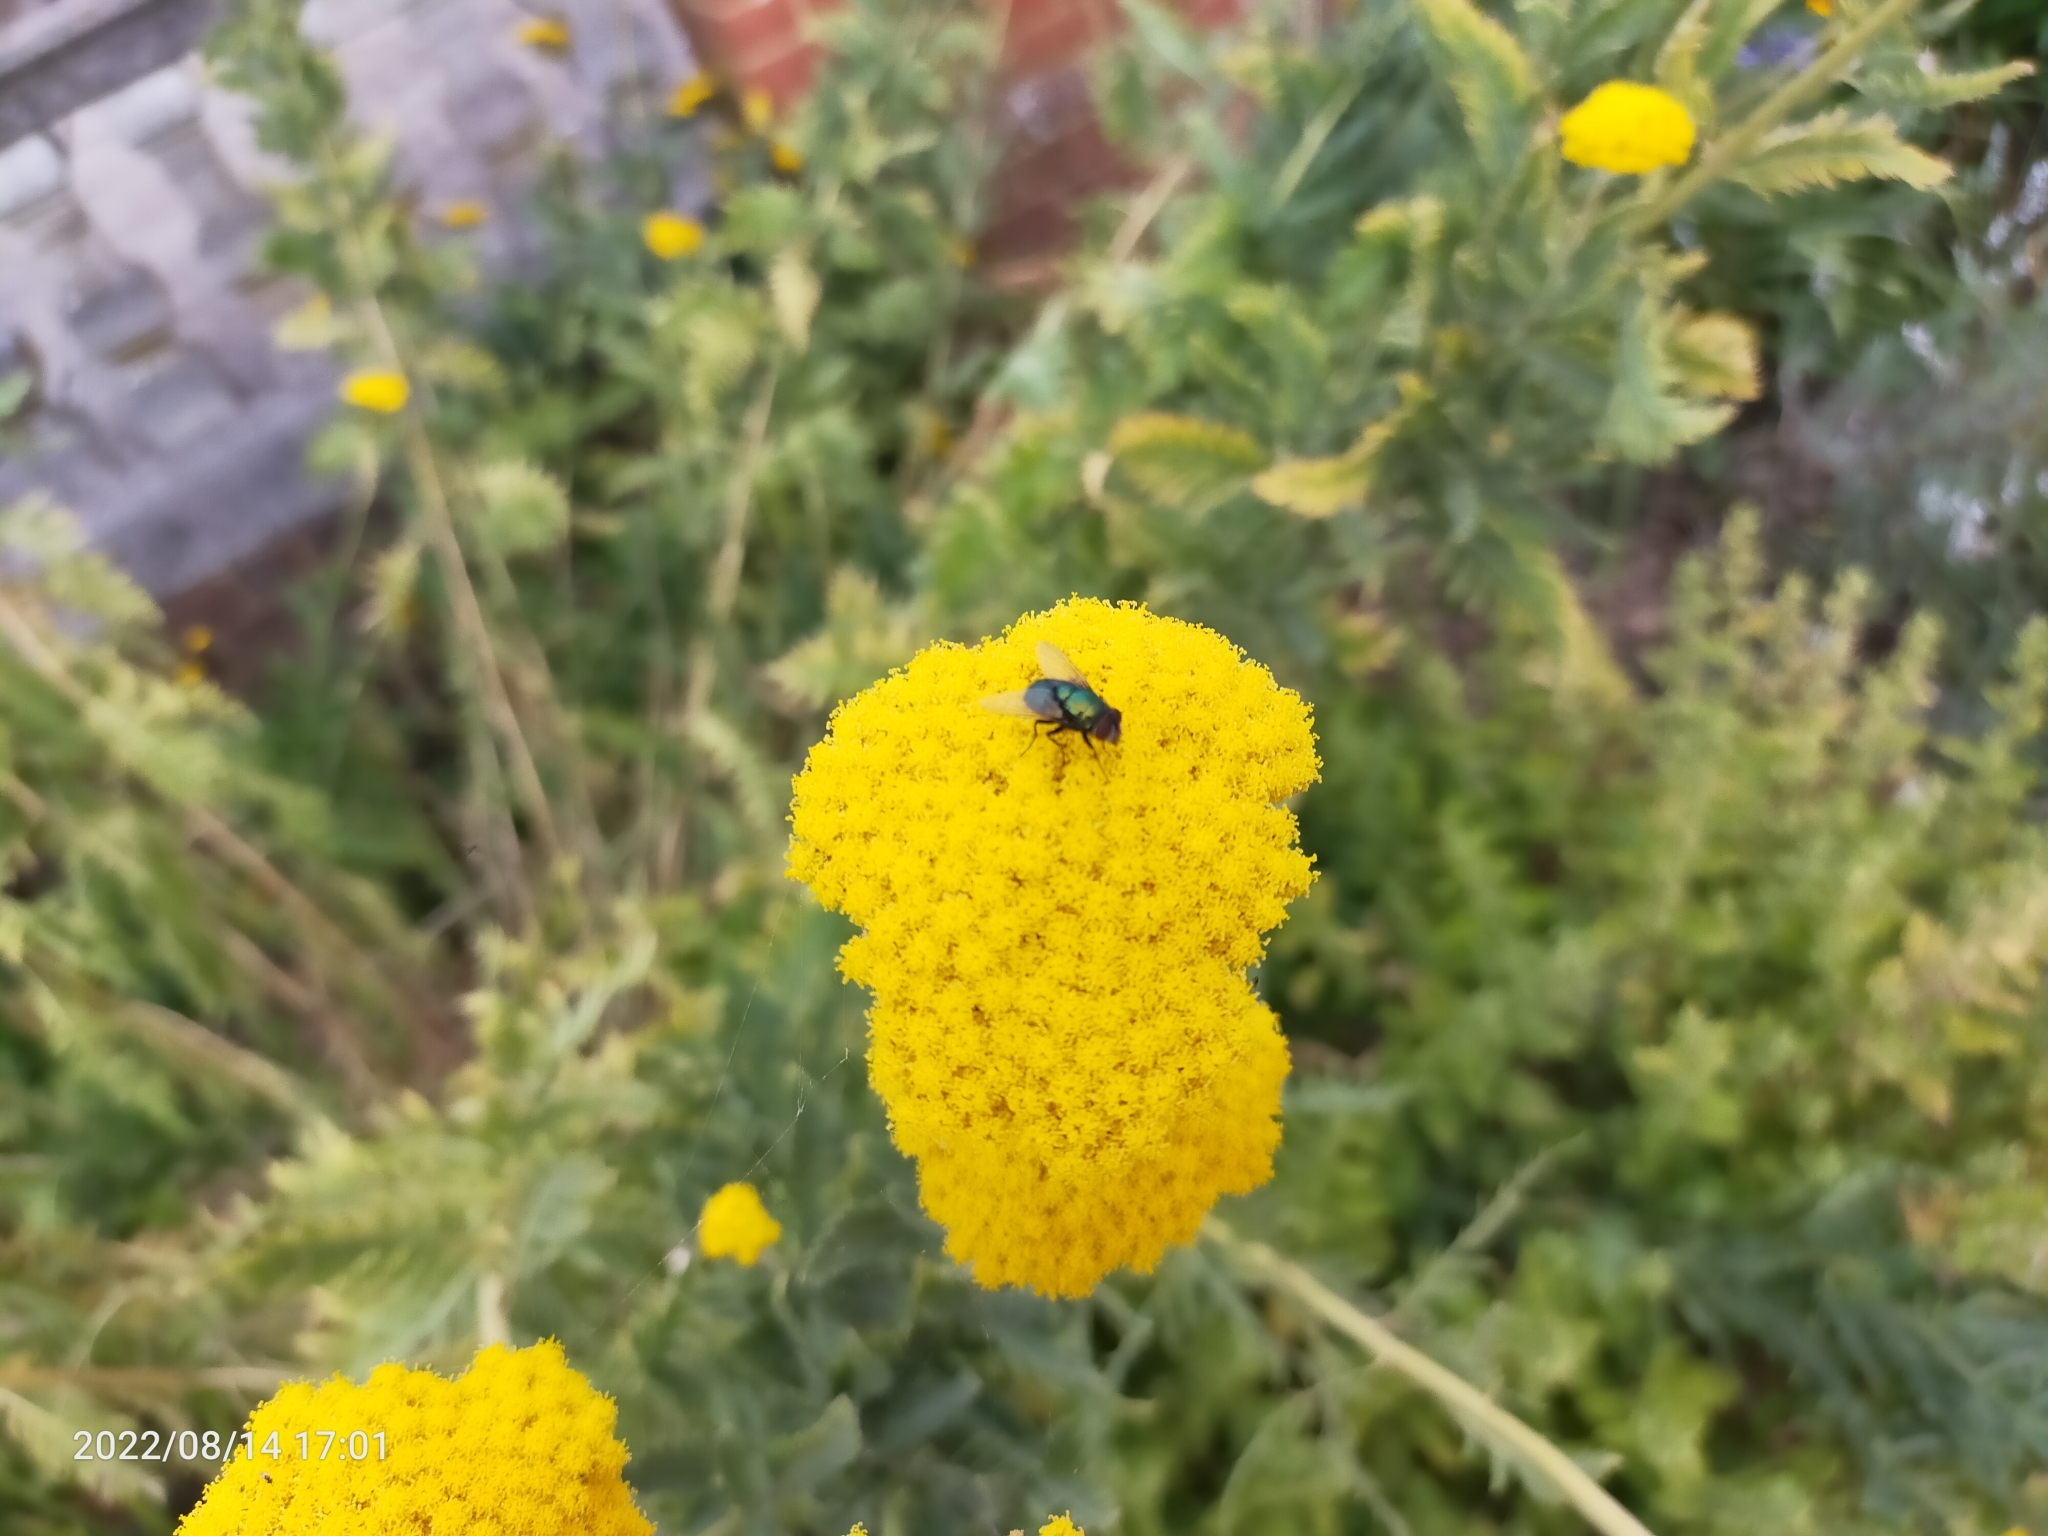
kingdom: Plantae
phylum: Tracheophyta
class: Magnoliopsida
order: Asterales
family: Asteraceae
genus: Achillea
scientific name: Achillea filipendulina
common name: Fernleaf yarrow
